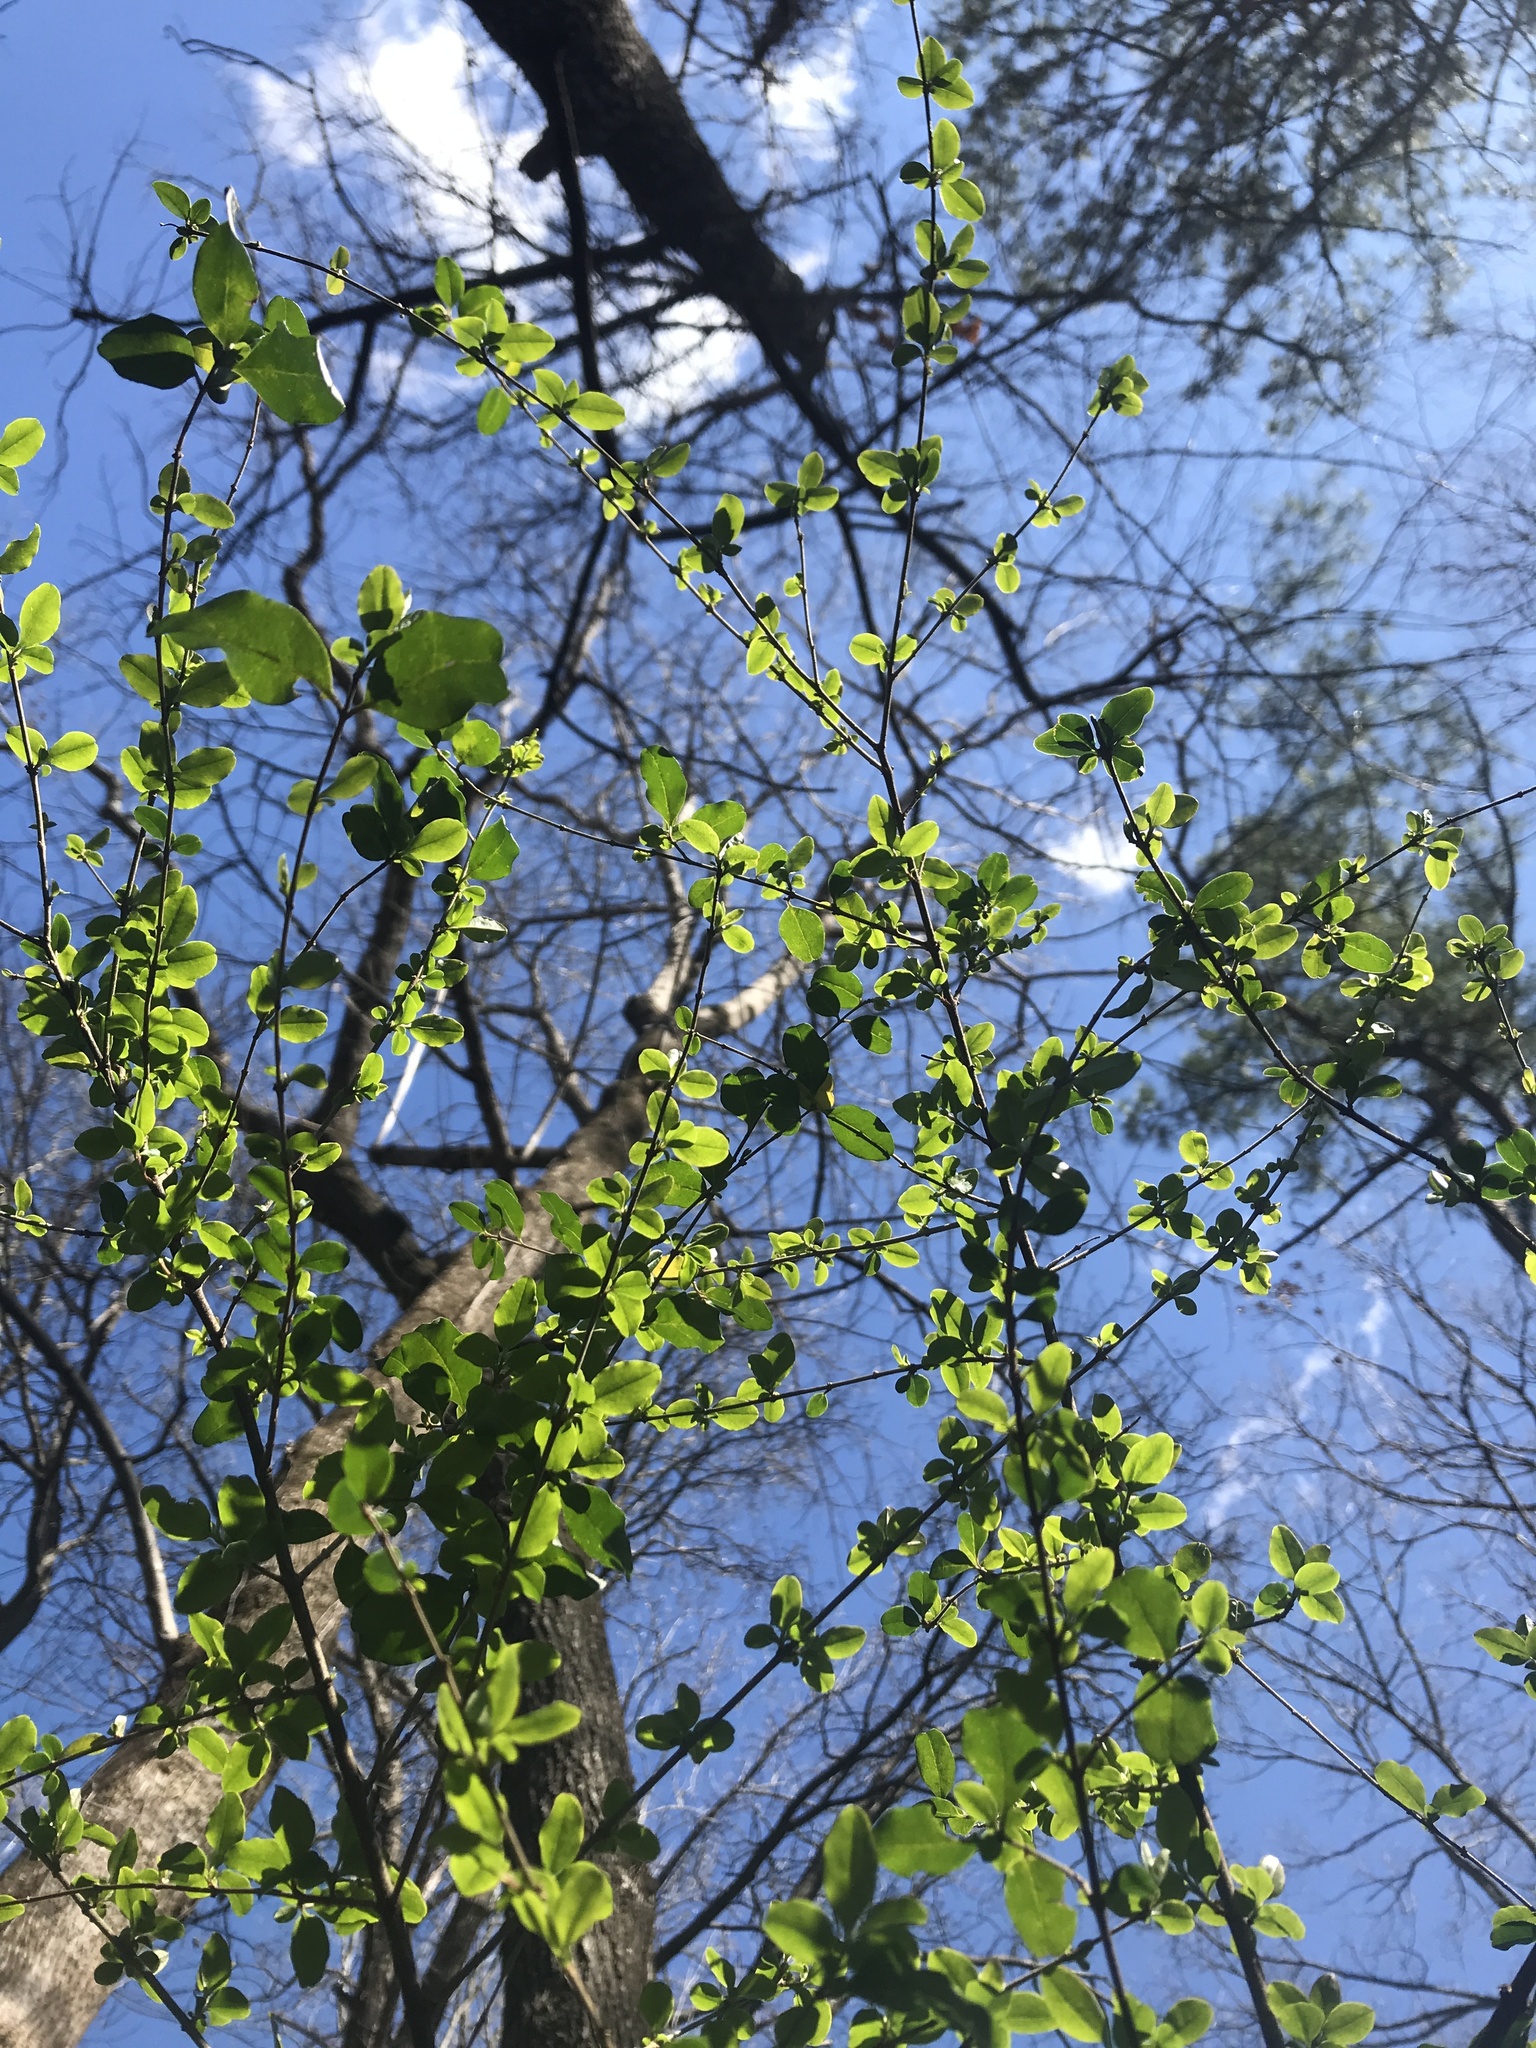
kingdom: Plantae
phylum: Tracheophyta
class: Magnoliopsida
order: Lamiales
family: Oleaceae
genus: Ligustrum
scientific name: Ligustrum sinense
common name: Chinese privet
